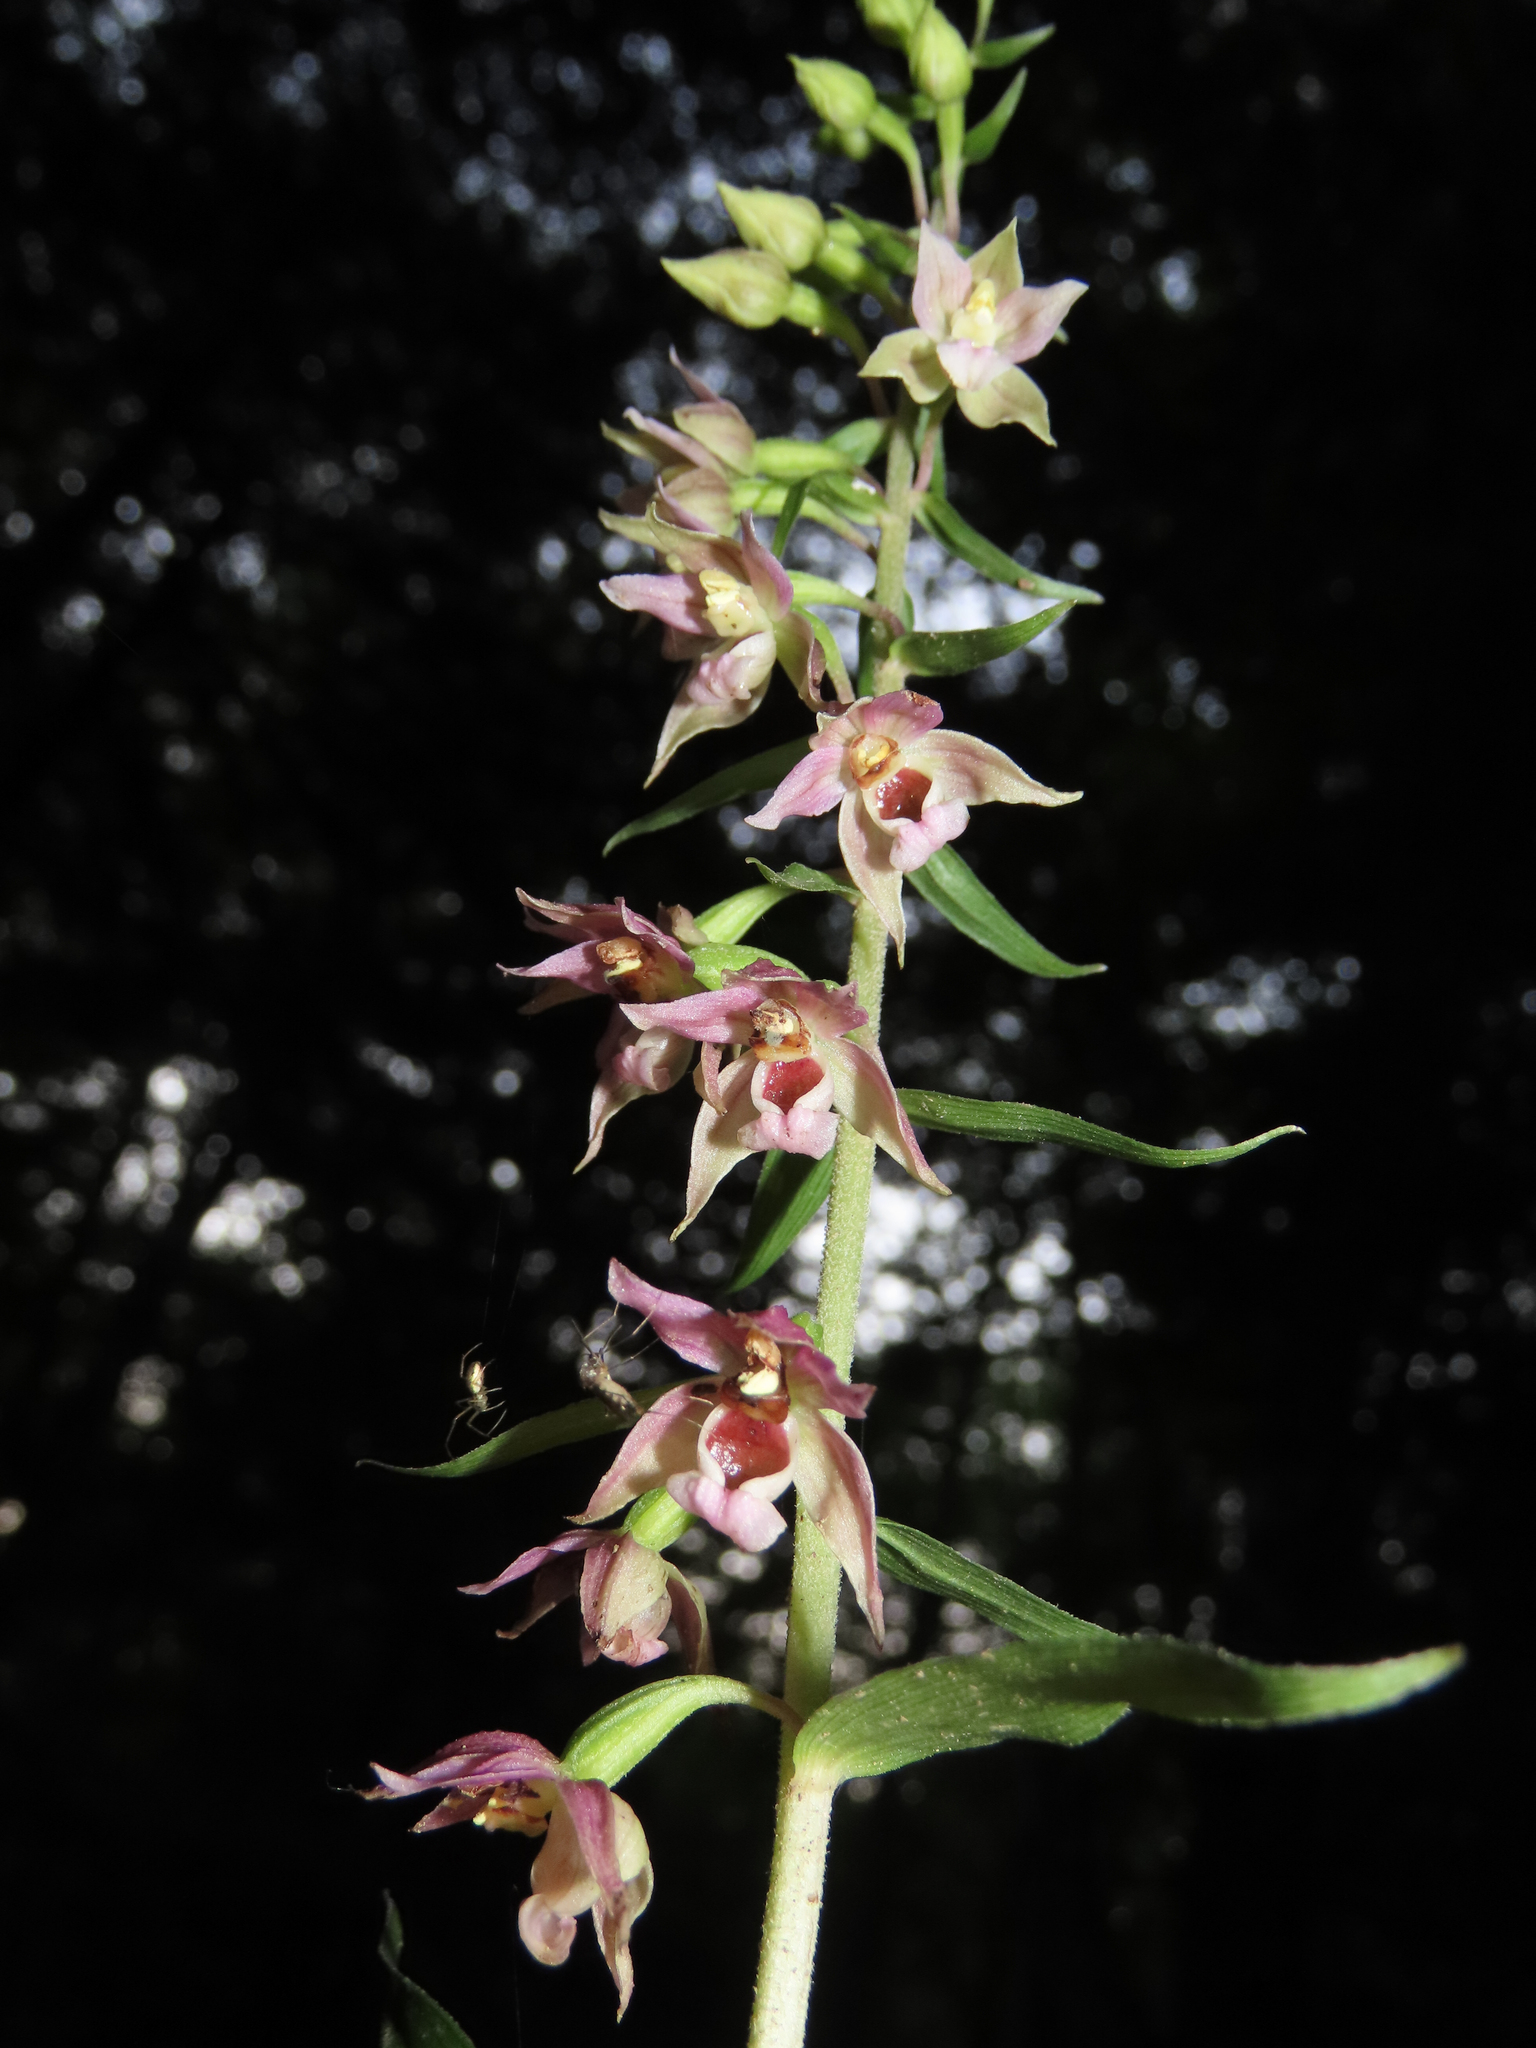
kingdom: Plantae
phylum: Tracheophyta
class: Liliopsida
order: Asparagales
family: Orchidaceae
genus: Epipactis
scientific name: Epipactis helleborine
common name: Broad-leaved helleborine
